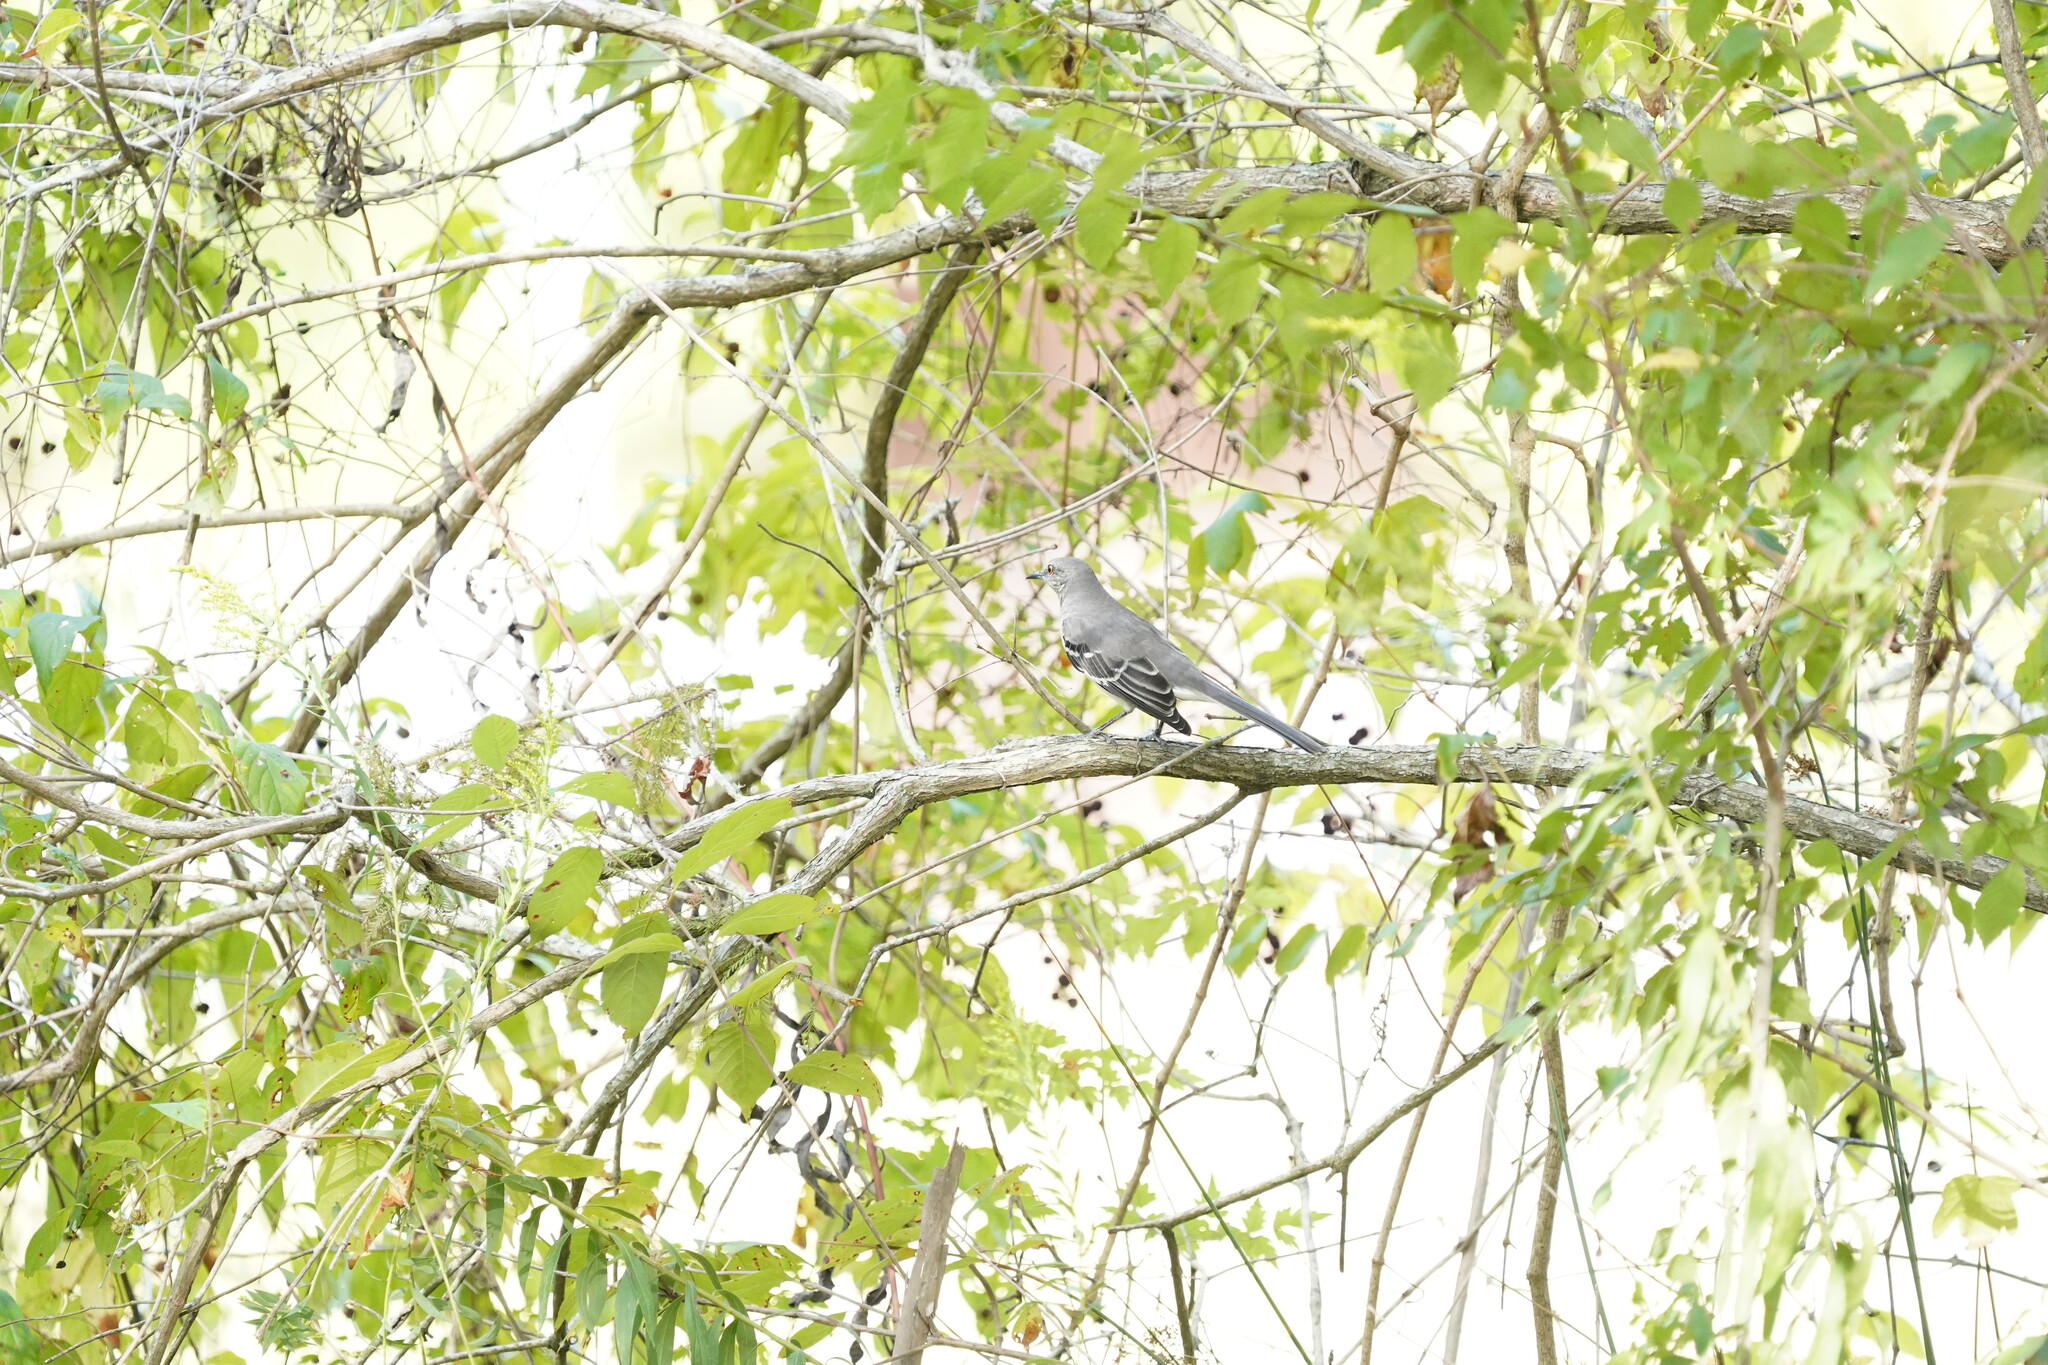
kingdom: Animalia
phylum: Chordata
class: Aves
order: Passeriformes
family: Mimidae
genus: Mimus
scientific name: Mimus polyglottos
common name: Northern mockingbird
